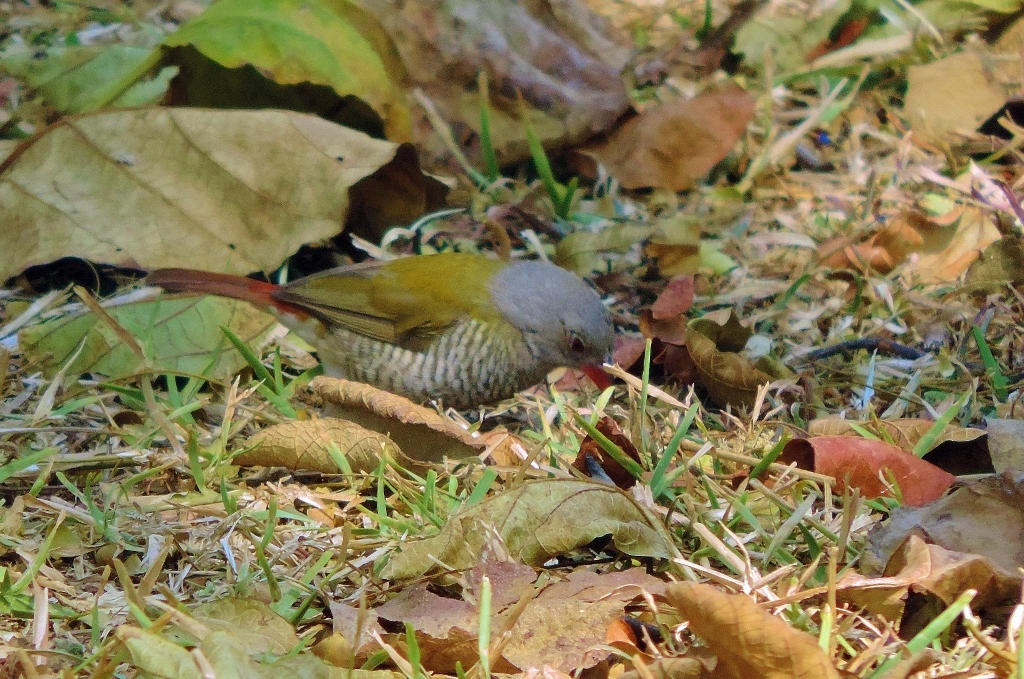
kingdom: Animalia
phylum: Chordata
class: Aves
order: Passeriformes
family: Estrildidae
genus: Pytilia
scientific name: Pytilia melba
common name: Green-winged pytilia
